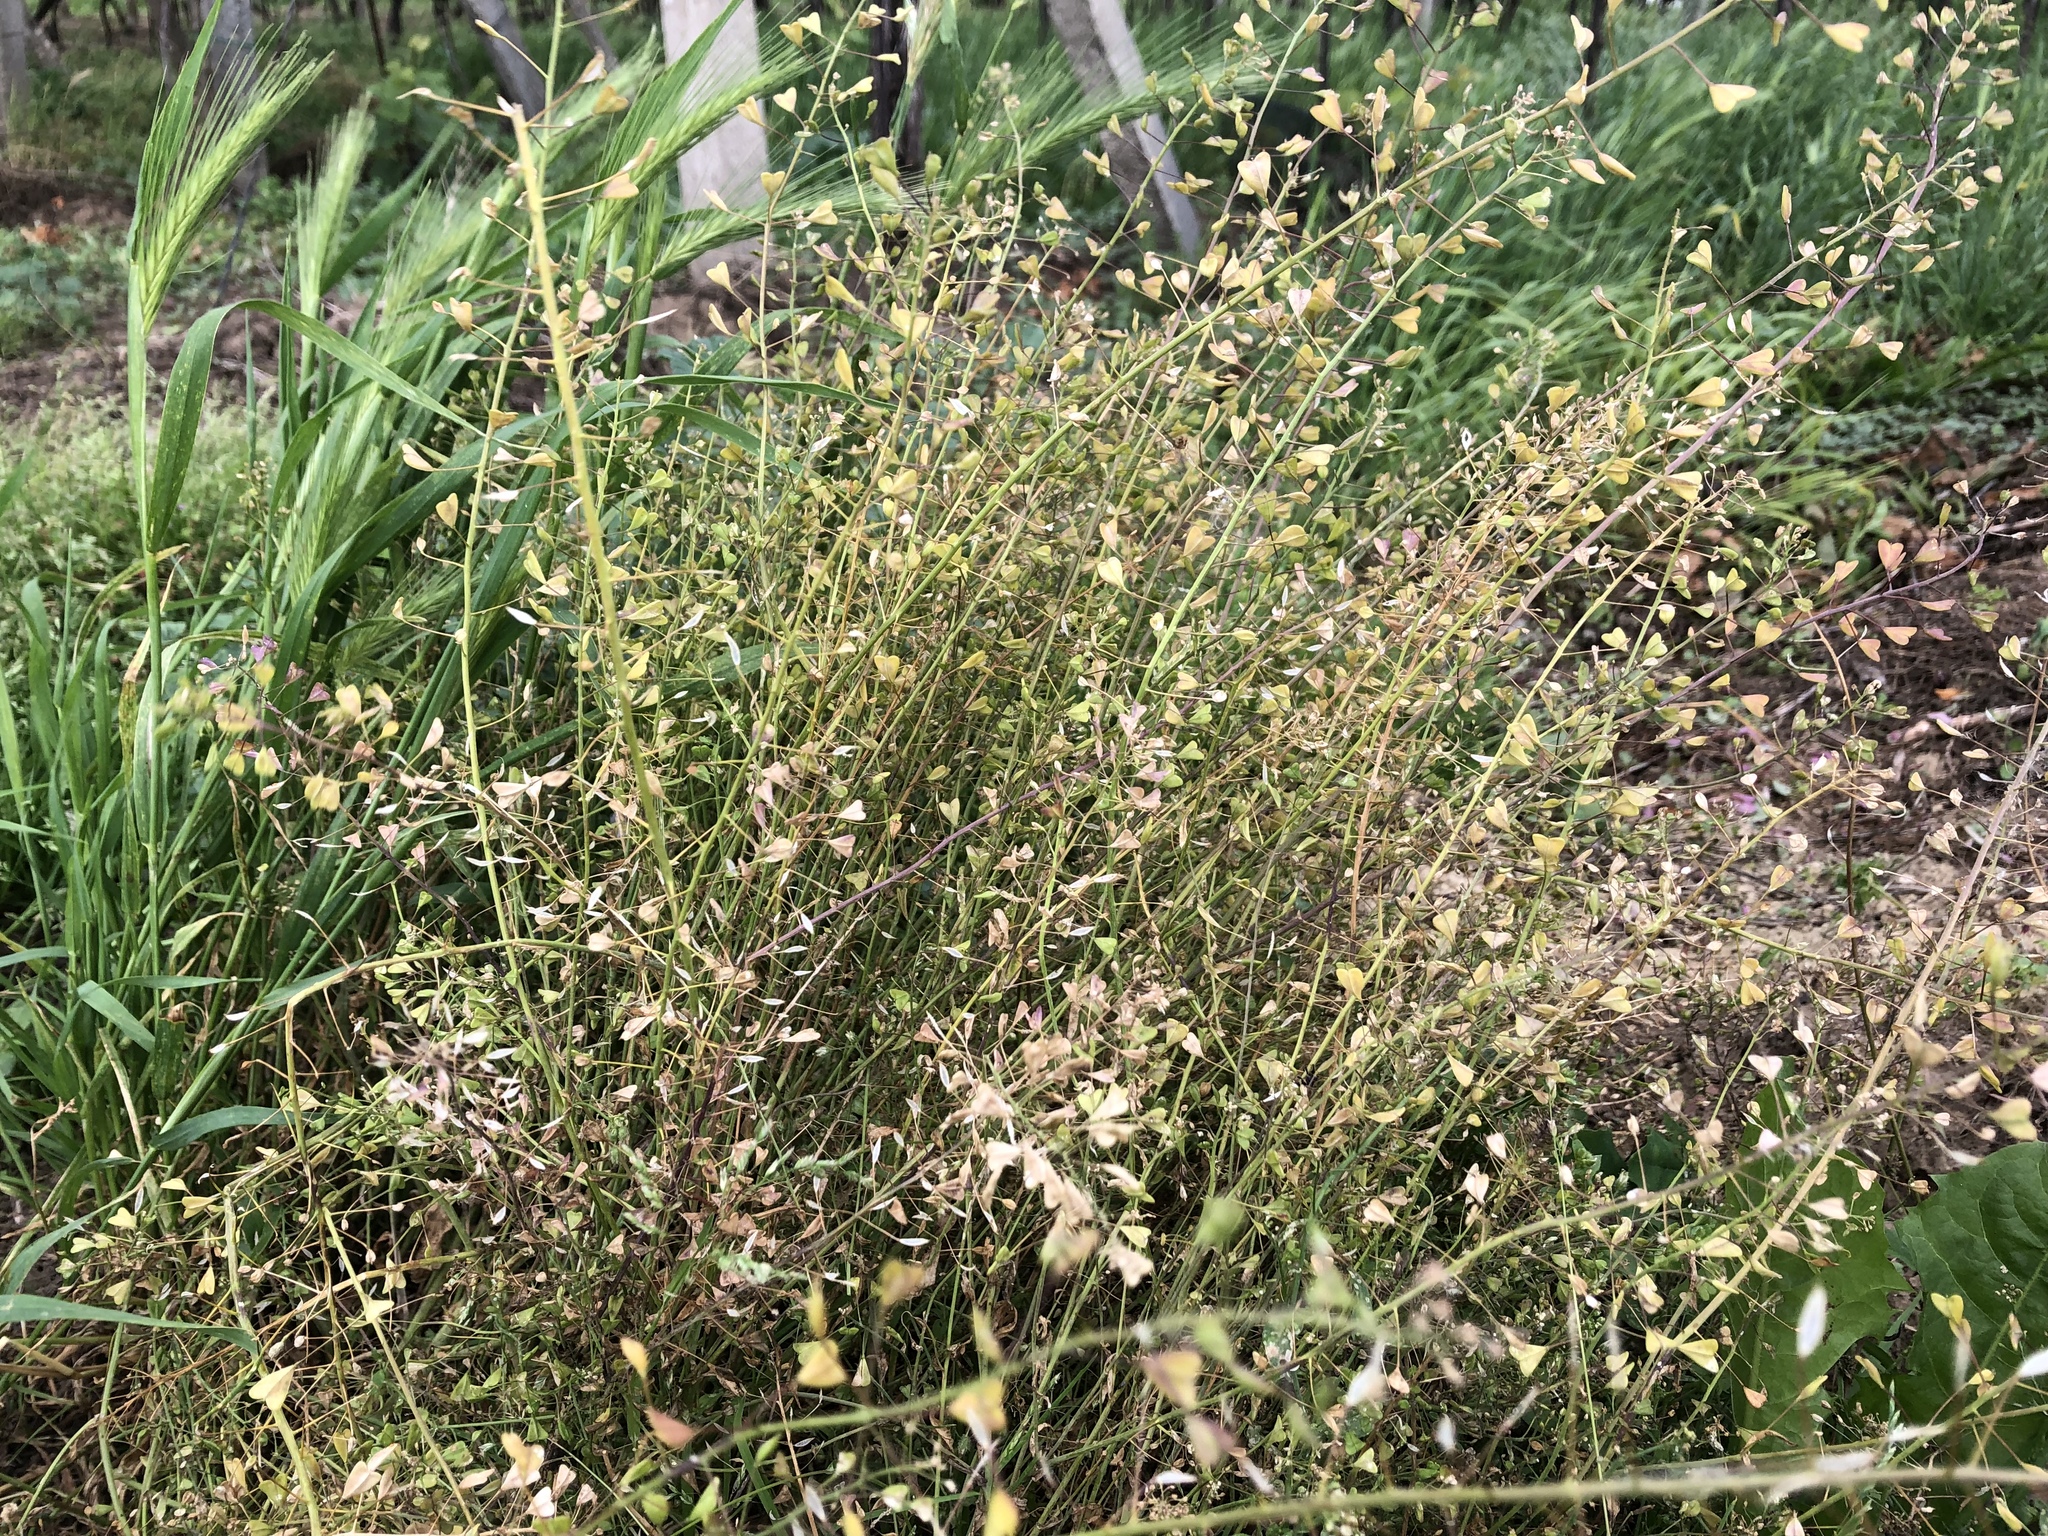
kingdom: Plantae
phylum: Tracheophyta
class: Magnoliopsida
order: Brassicales
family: Brassicaceae
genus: Capsella
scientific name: Capsella bursa-pastoris
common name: Shepherd's purse
